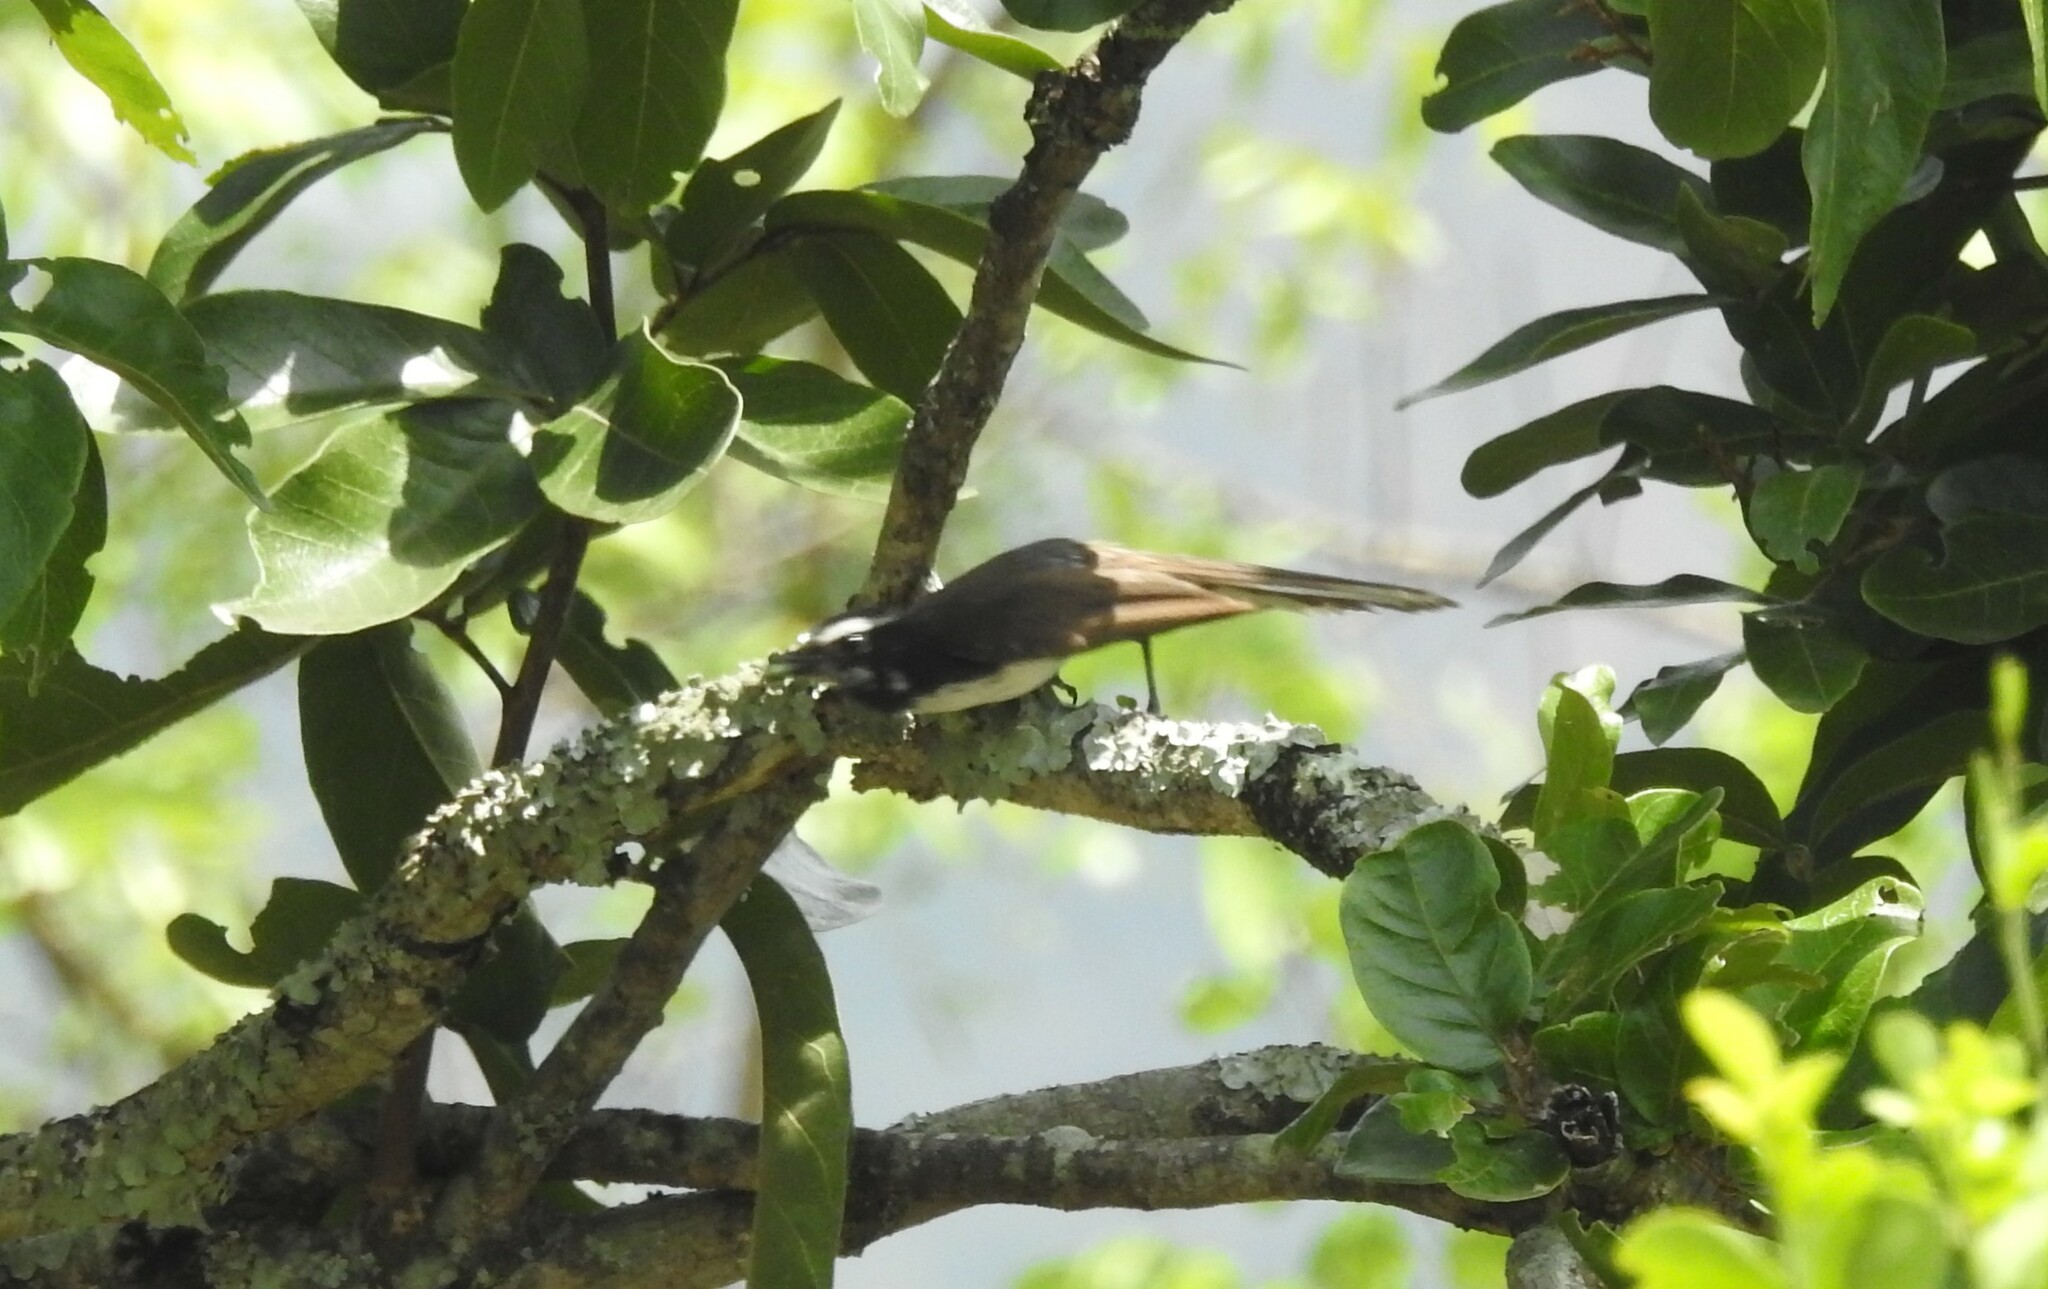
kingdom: Animalia
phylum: Chordata
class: Aves
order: Passeriformes
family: Rhipiduridae
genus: Rhipidura
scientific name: Rhipidura aureola
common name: White-browed fantail
